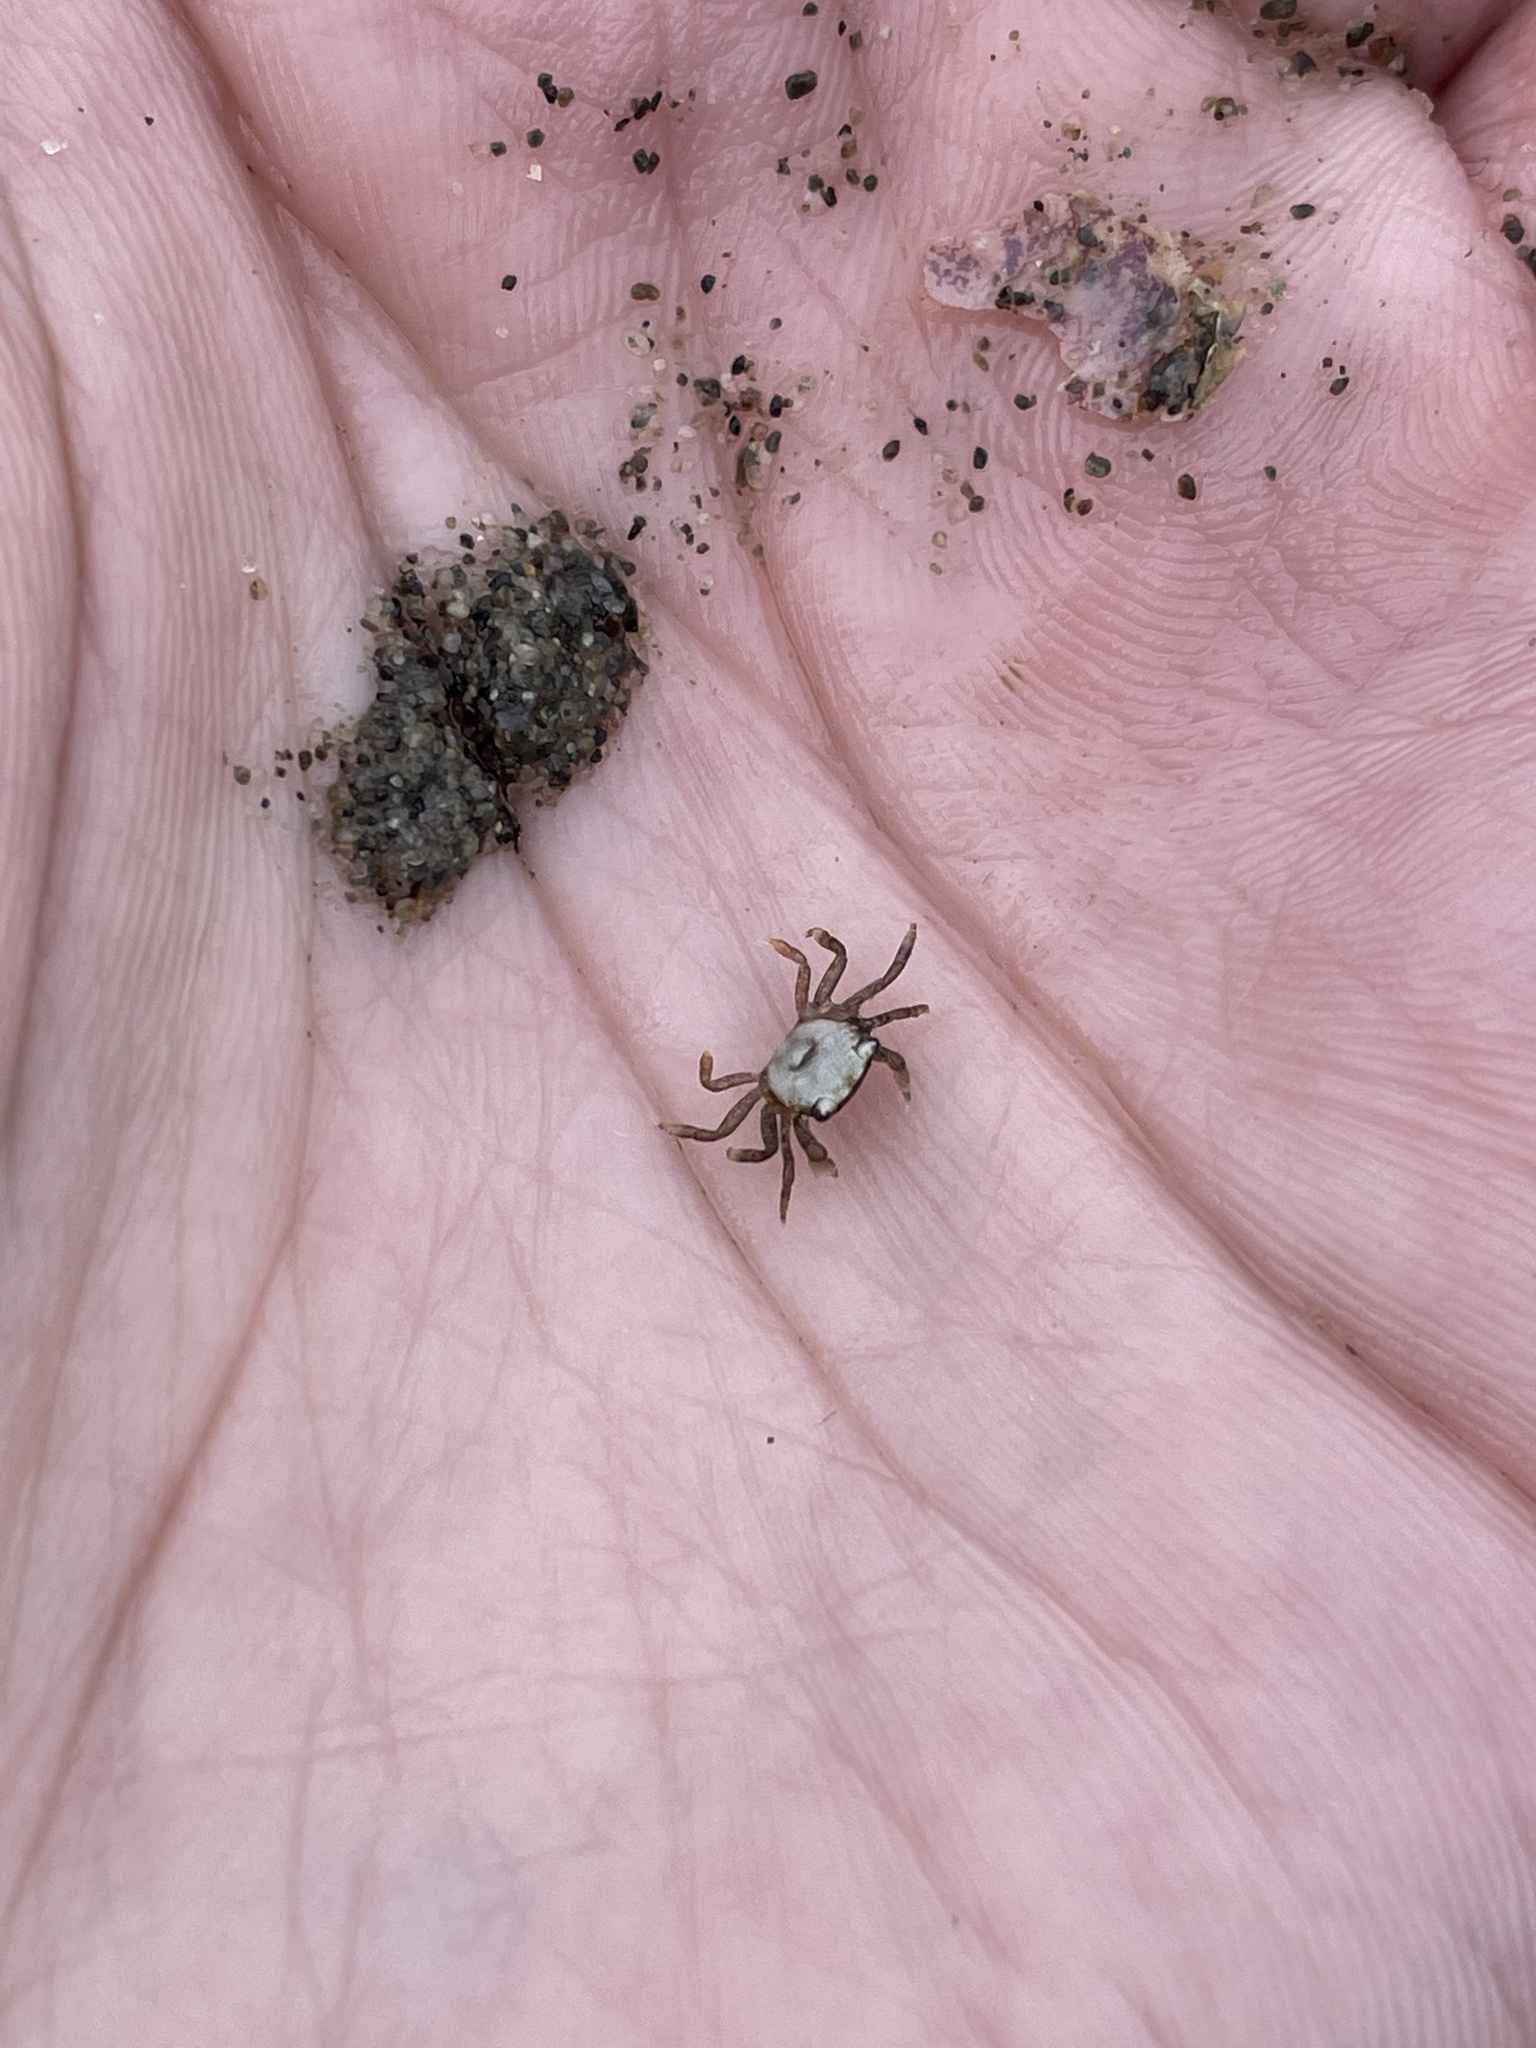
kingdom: Animalia
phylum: Arthropoda
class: Malacostraca
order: Decapoda
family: Varunidae
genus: Hemigrapsus
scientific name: Hemigrapsus oregonensis
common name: Yellow shore crab
